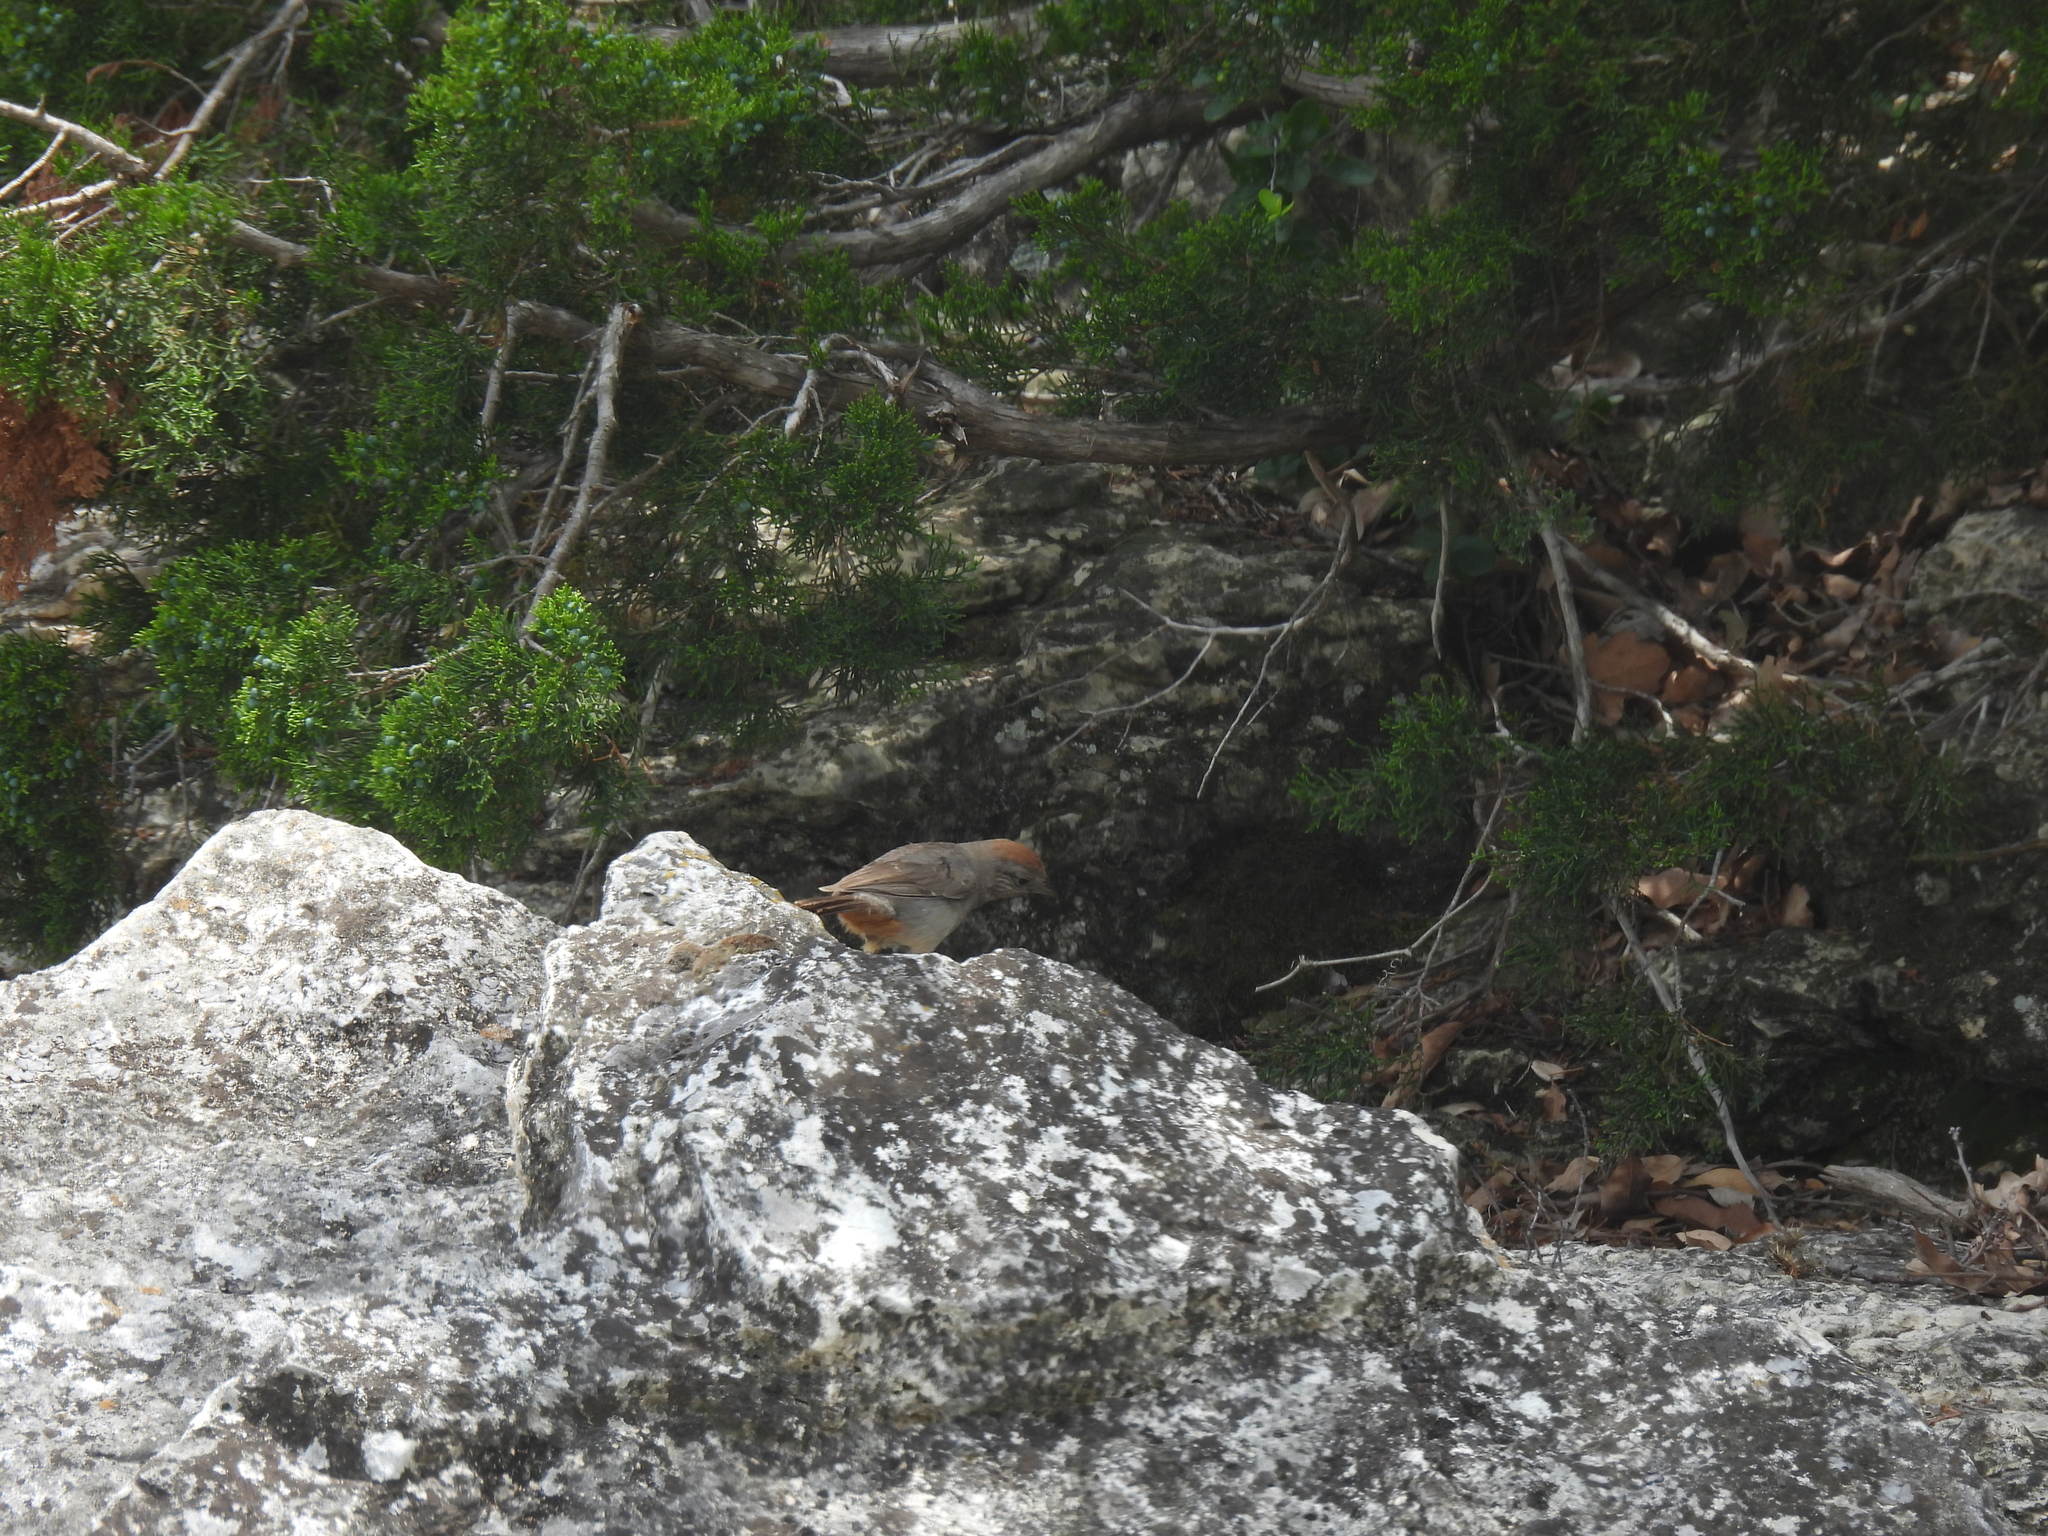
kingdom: Animalia
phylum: Chordata
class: Aves
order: Passeriformes
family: Passerellidae
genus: Melozone
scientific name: Melozone fusca
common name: Canyon towhee
